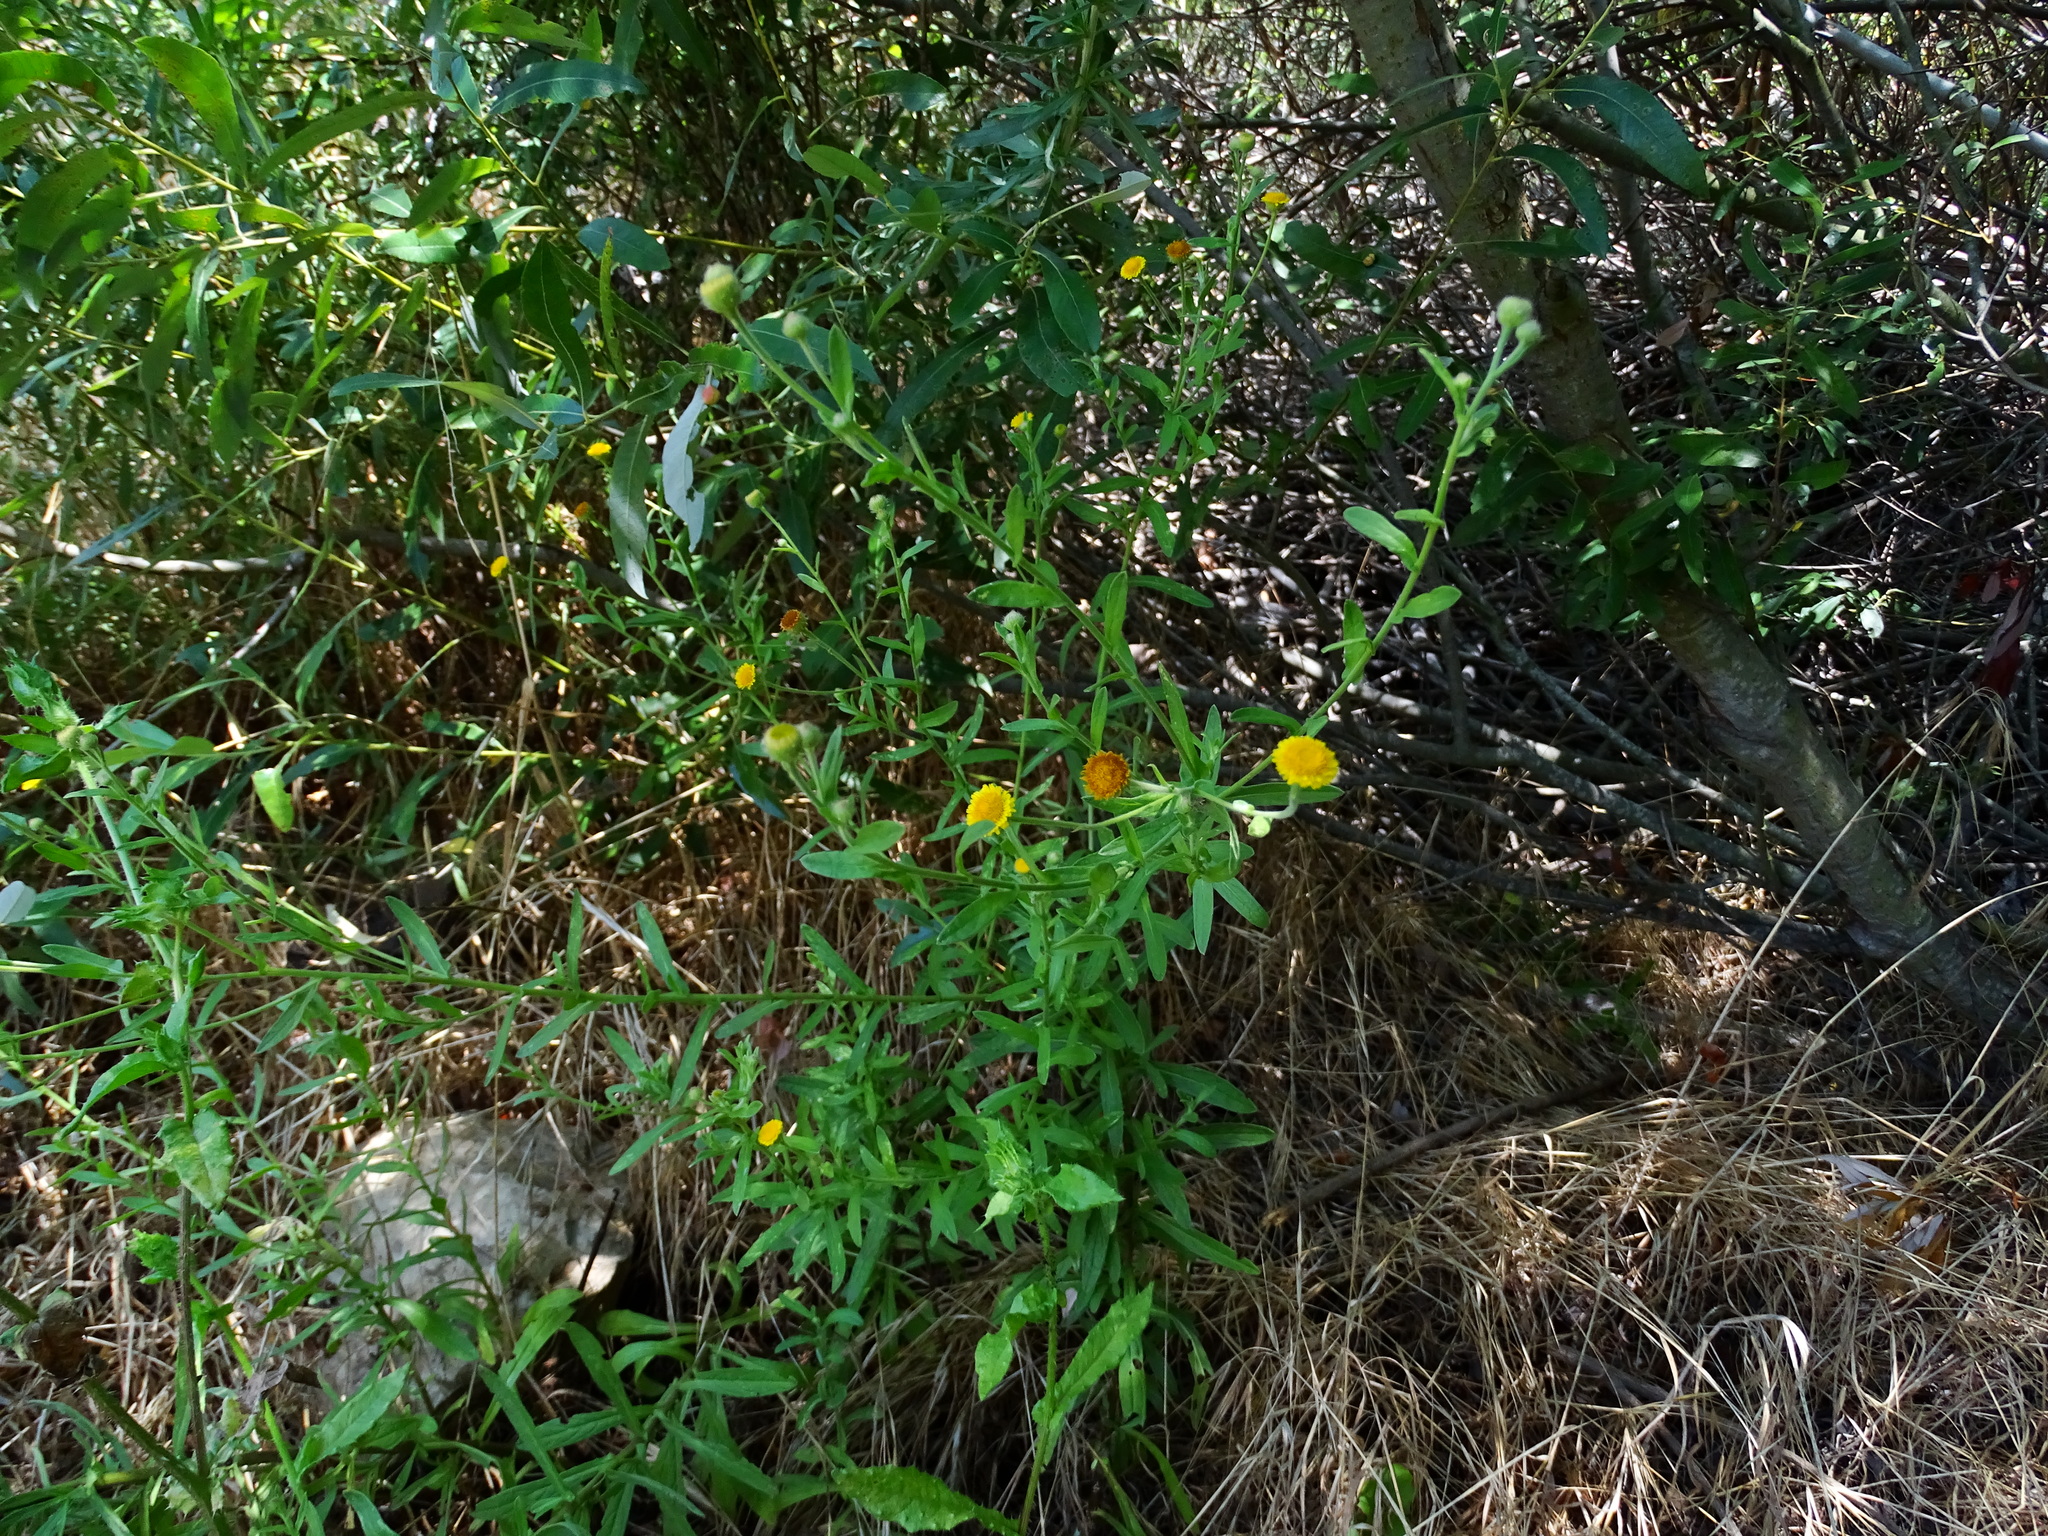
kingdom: Plantae
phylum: Tracheophyta
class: Magnoliopsida
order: Asterales
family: Asteraceae
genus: Pulicaria
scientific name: Pulicaria paludosa
